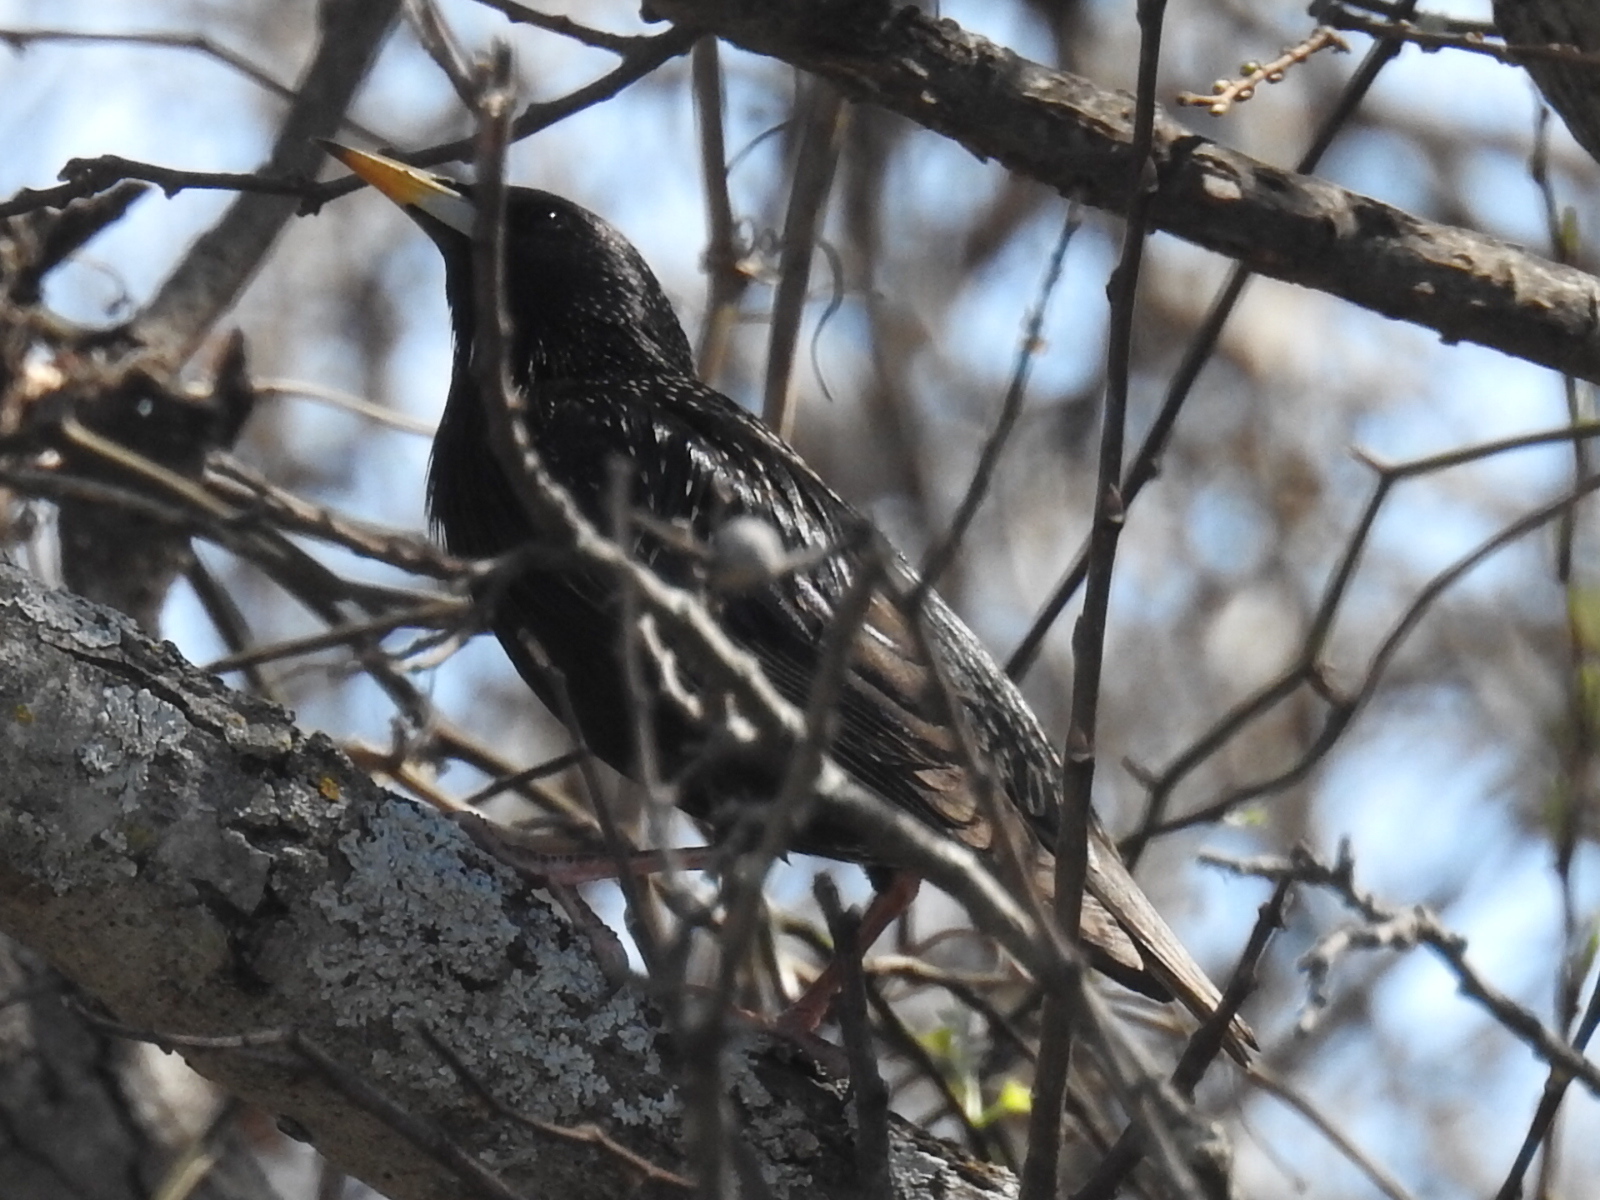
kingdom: Animalia
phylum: Chordata
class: Aves
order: Passeriformes
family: Sturnidae
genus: Sturnus
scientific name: Sturnus vulgaris
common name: Common starling
